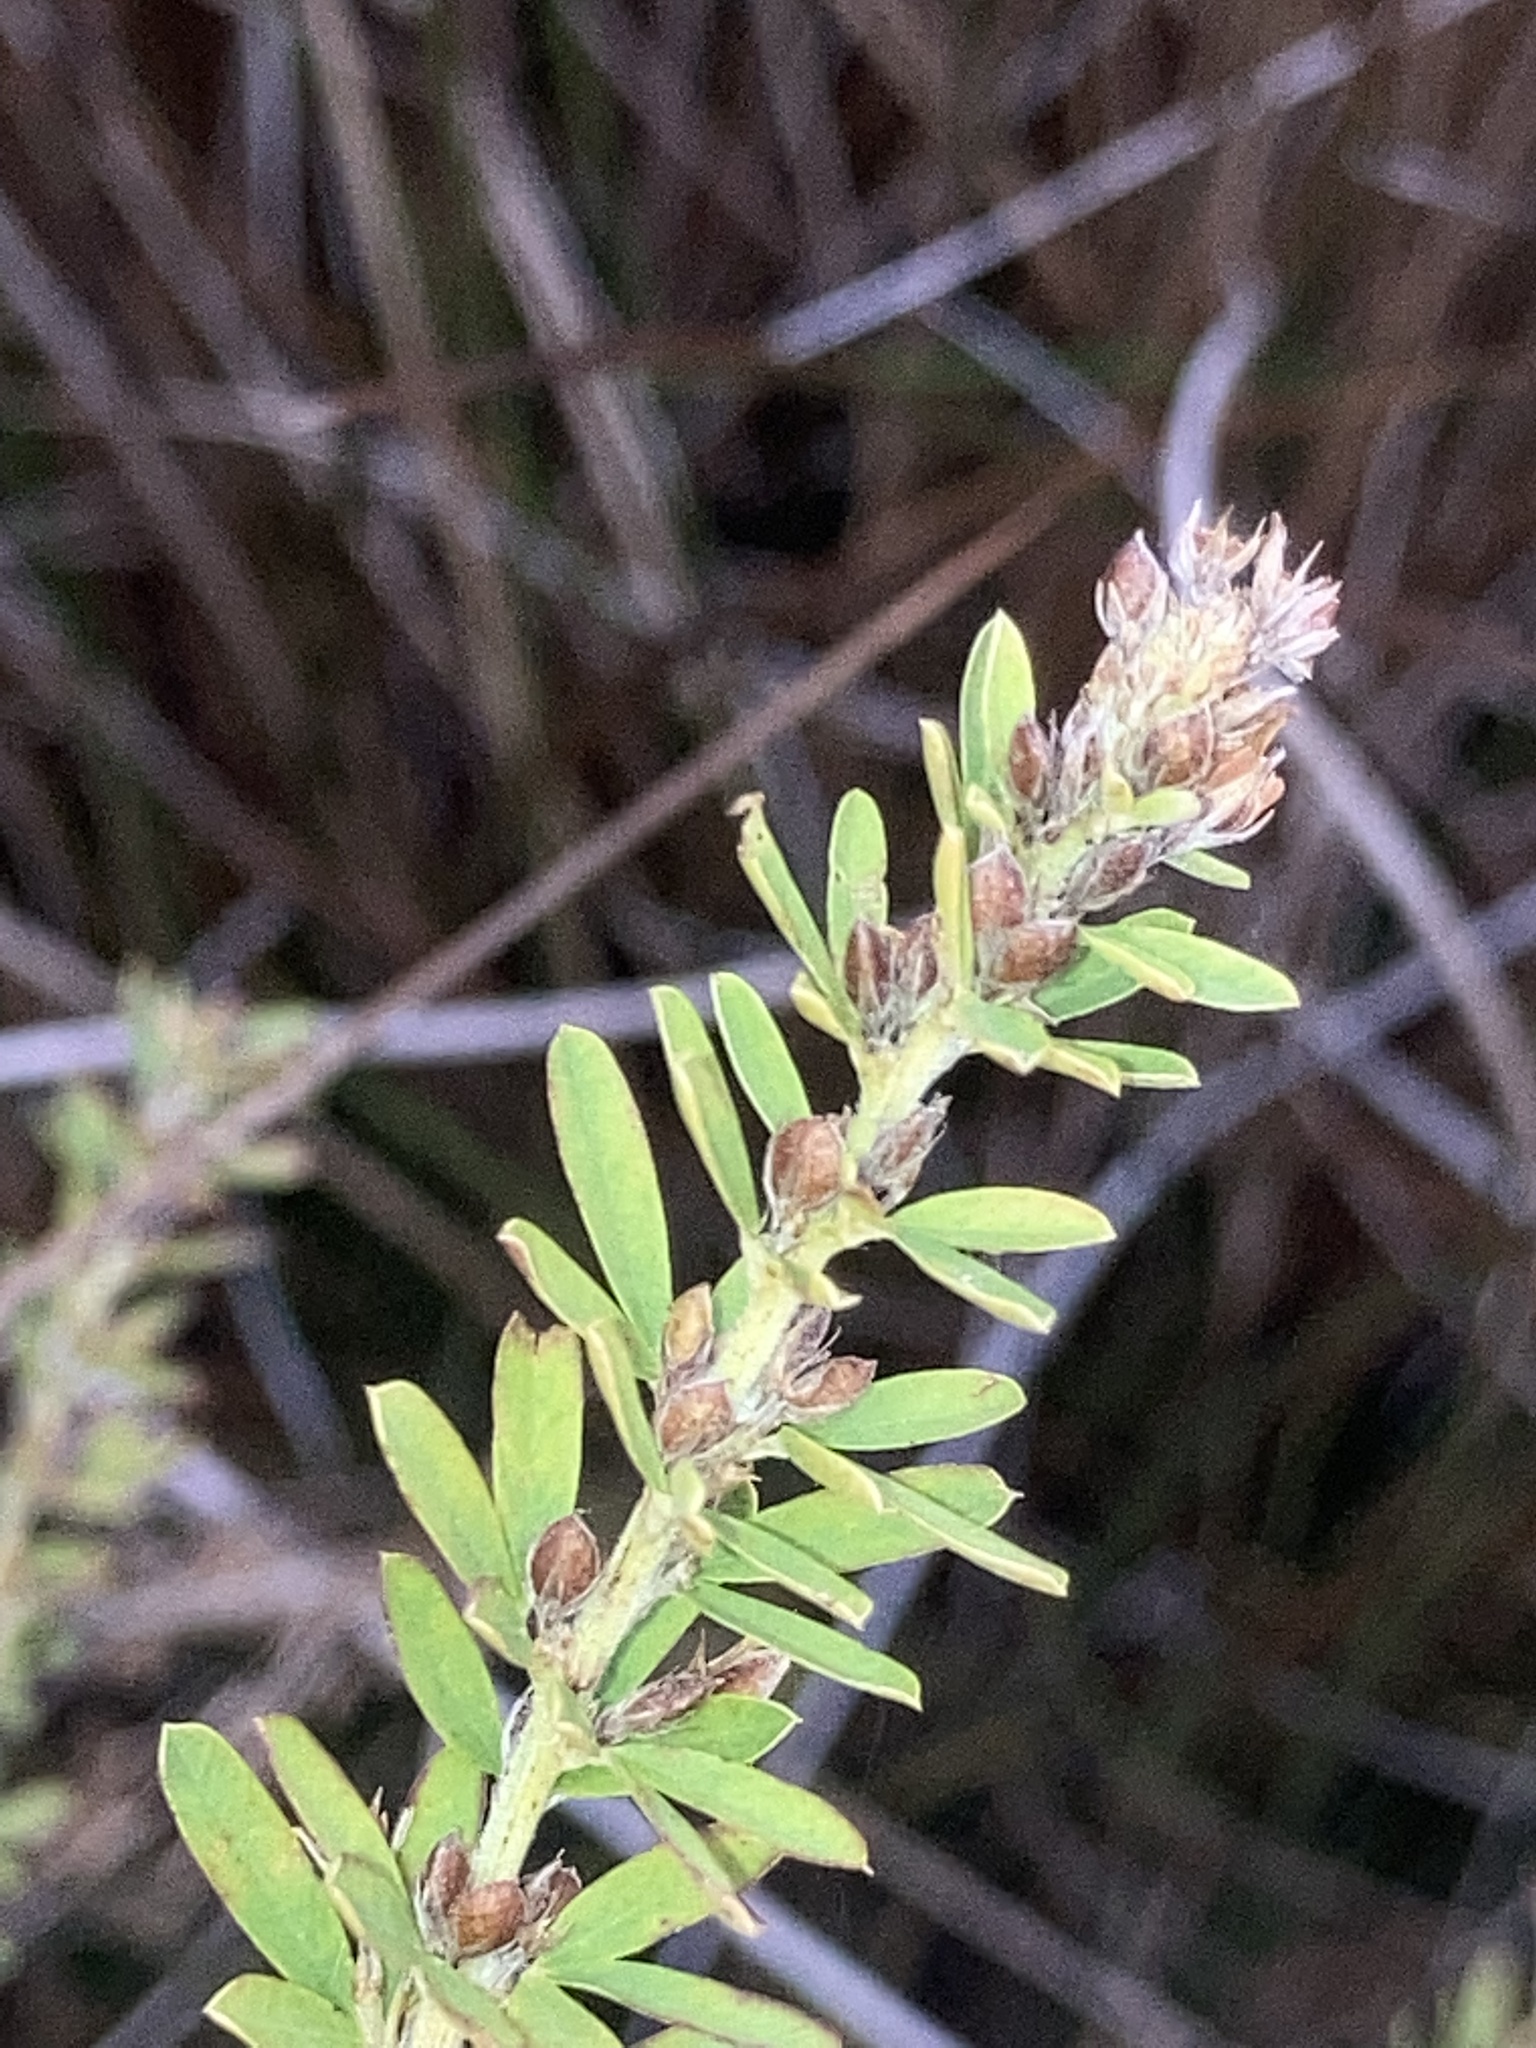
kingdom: Plantae
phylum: Tracheophyta
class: Magnoliopsida
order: Fabales
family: Fabaceae
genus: Lespedeza
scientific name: Lespedeza cuneata
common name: Chinese bush-clover
